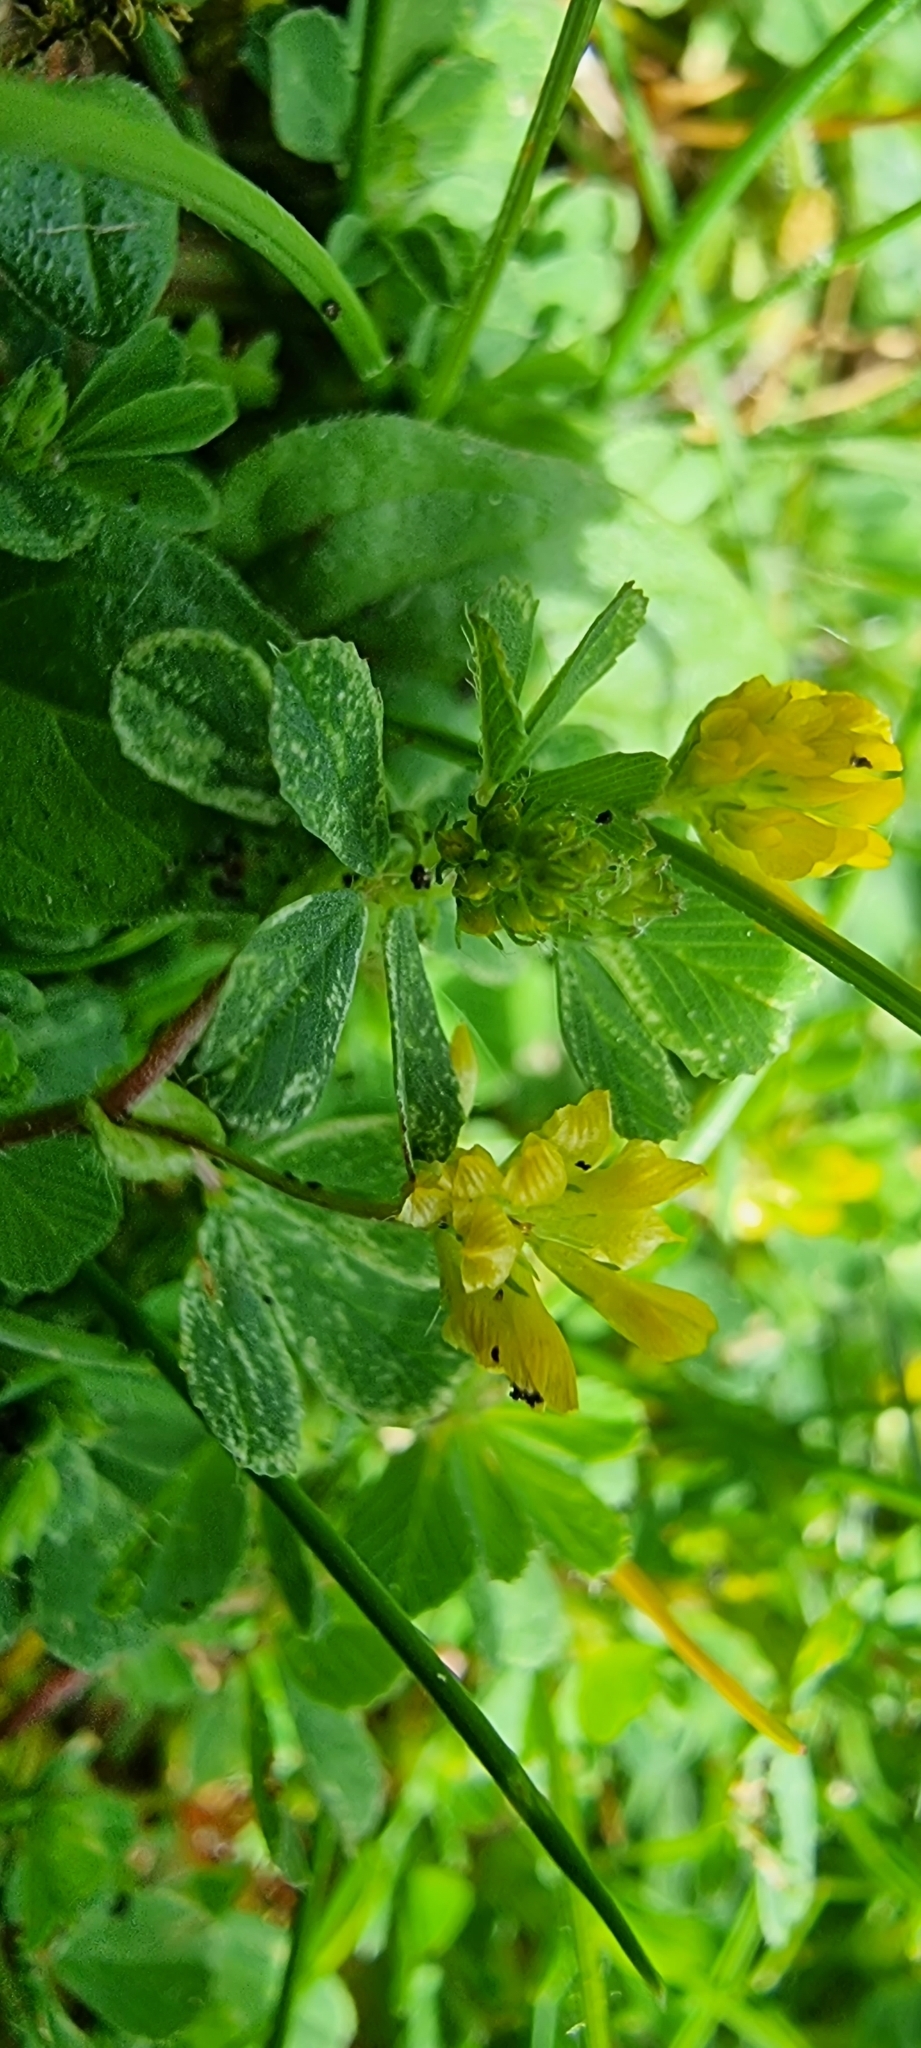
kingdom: Plantae
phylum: Tracheophyta
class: Magnoliopsida
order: Fabales
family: Fabaceae
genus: Trifolium
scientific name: Trifolium dubium
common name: Suckling clover
